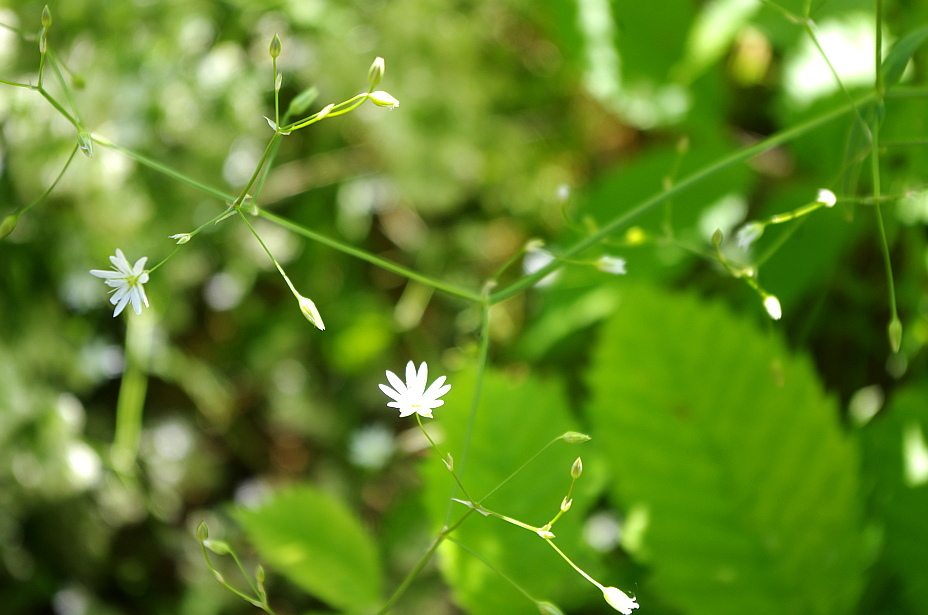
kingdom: Plantae
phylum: Tracheophyta
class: Magnoliopsida
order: Caryophyllales
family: Caryophyllaceae
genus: Stellaria
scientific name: Stellaria graminea
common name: Grass-like starwort
